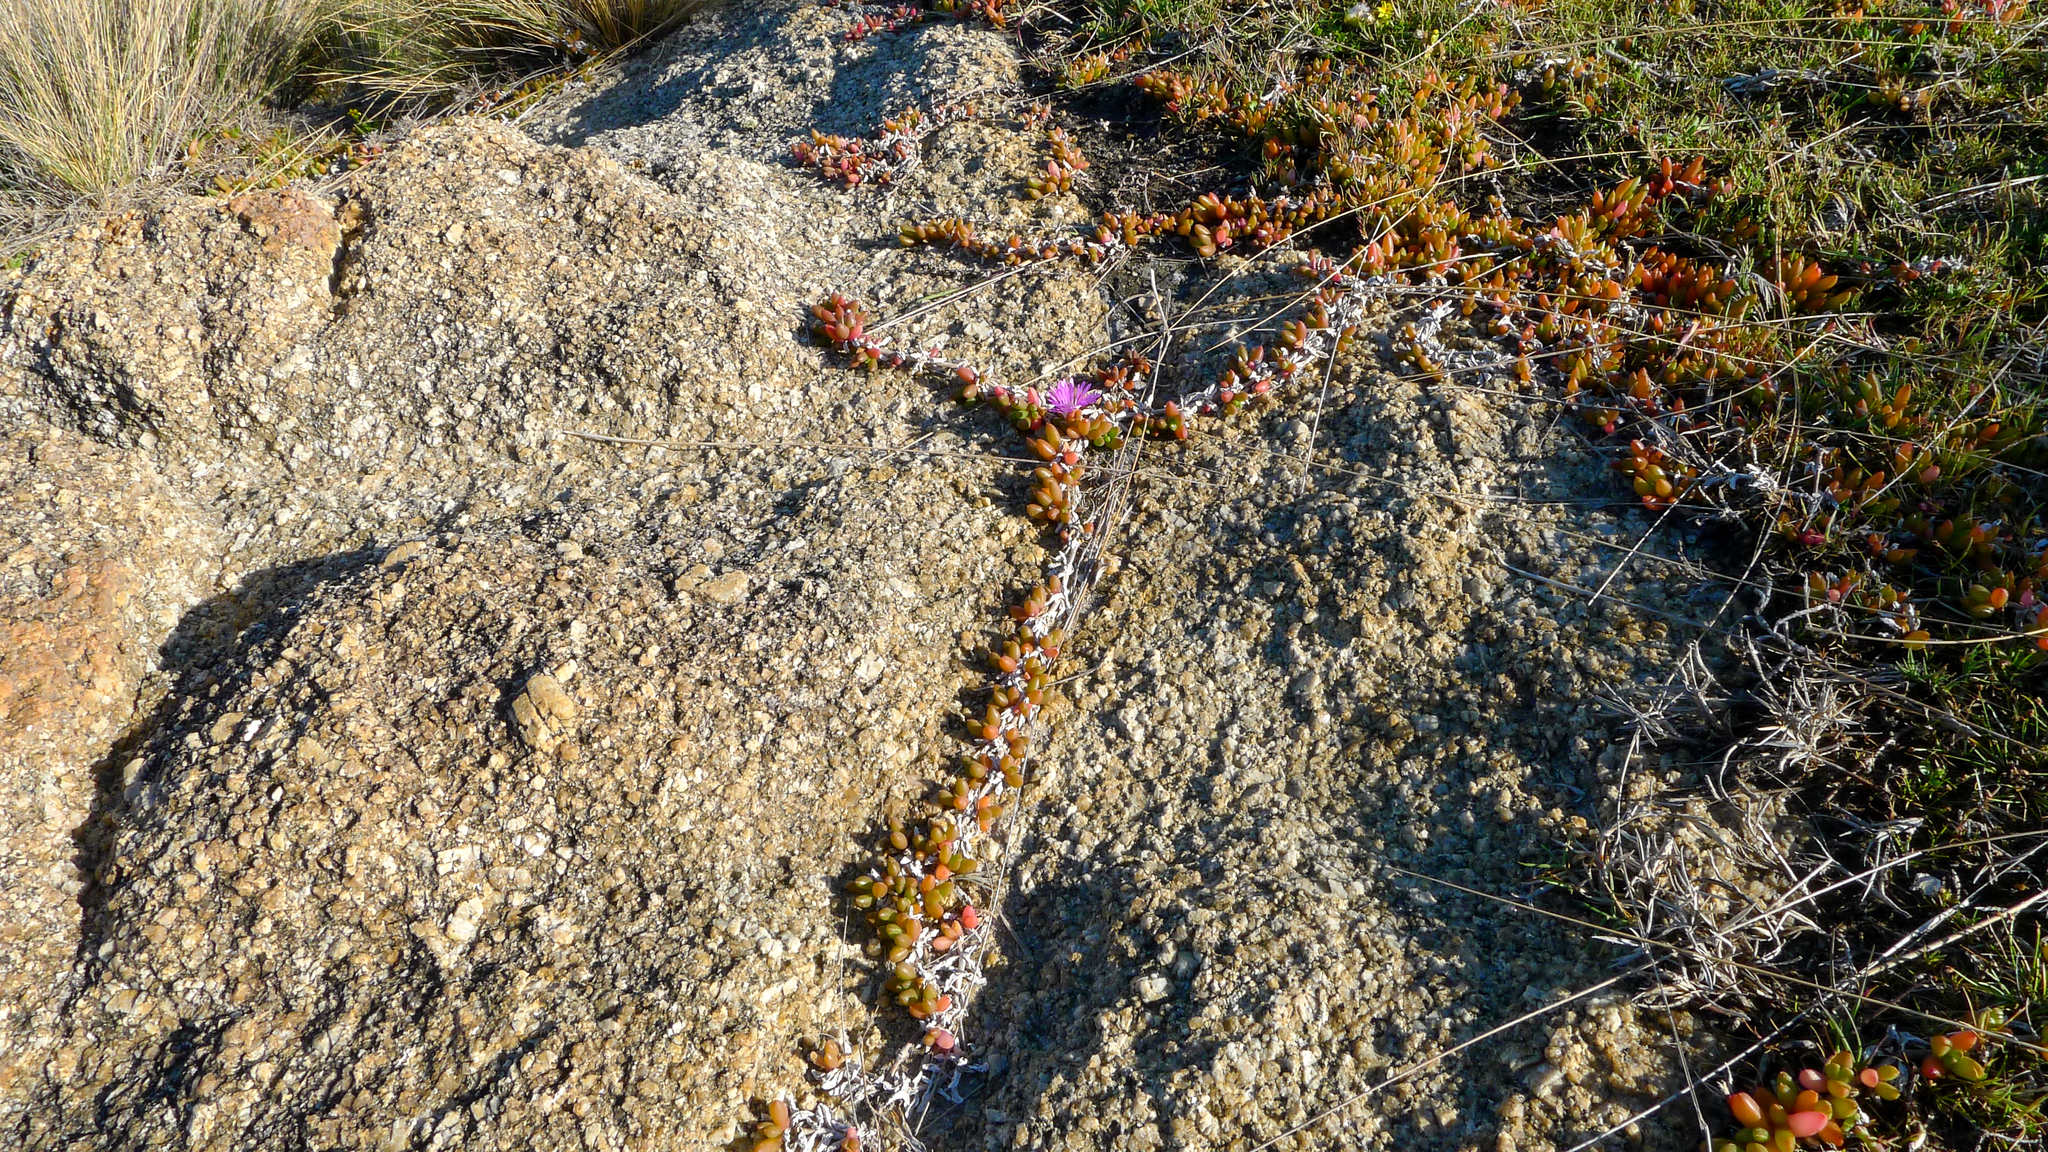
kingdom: Plantae
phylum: Tracheophyta
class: Magnoliopsida
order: Caryophyllales
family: Aizoaceae
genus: Disphyma
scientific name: Disphyma crassifolium
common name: Purple dewplant
